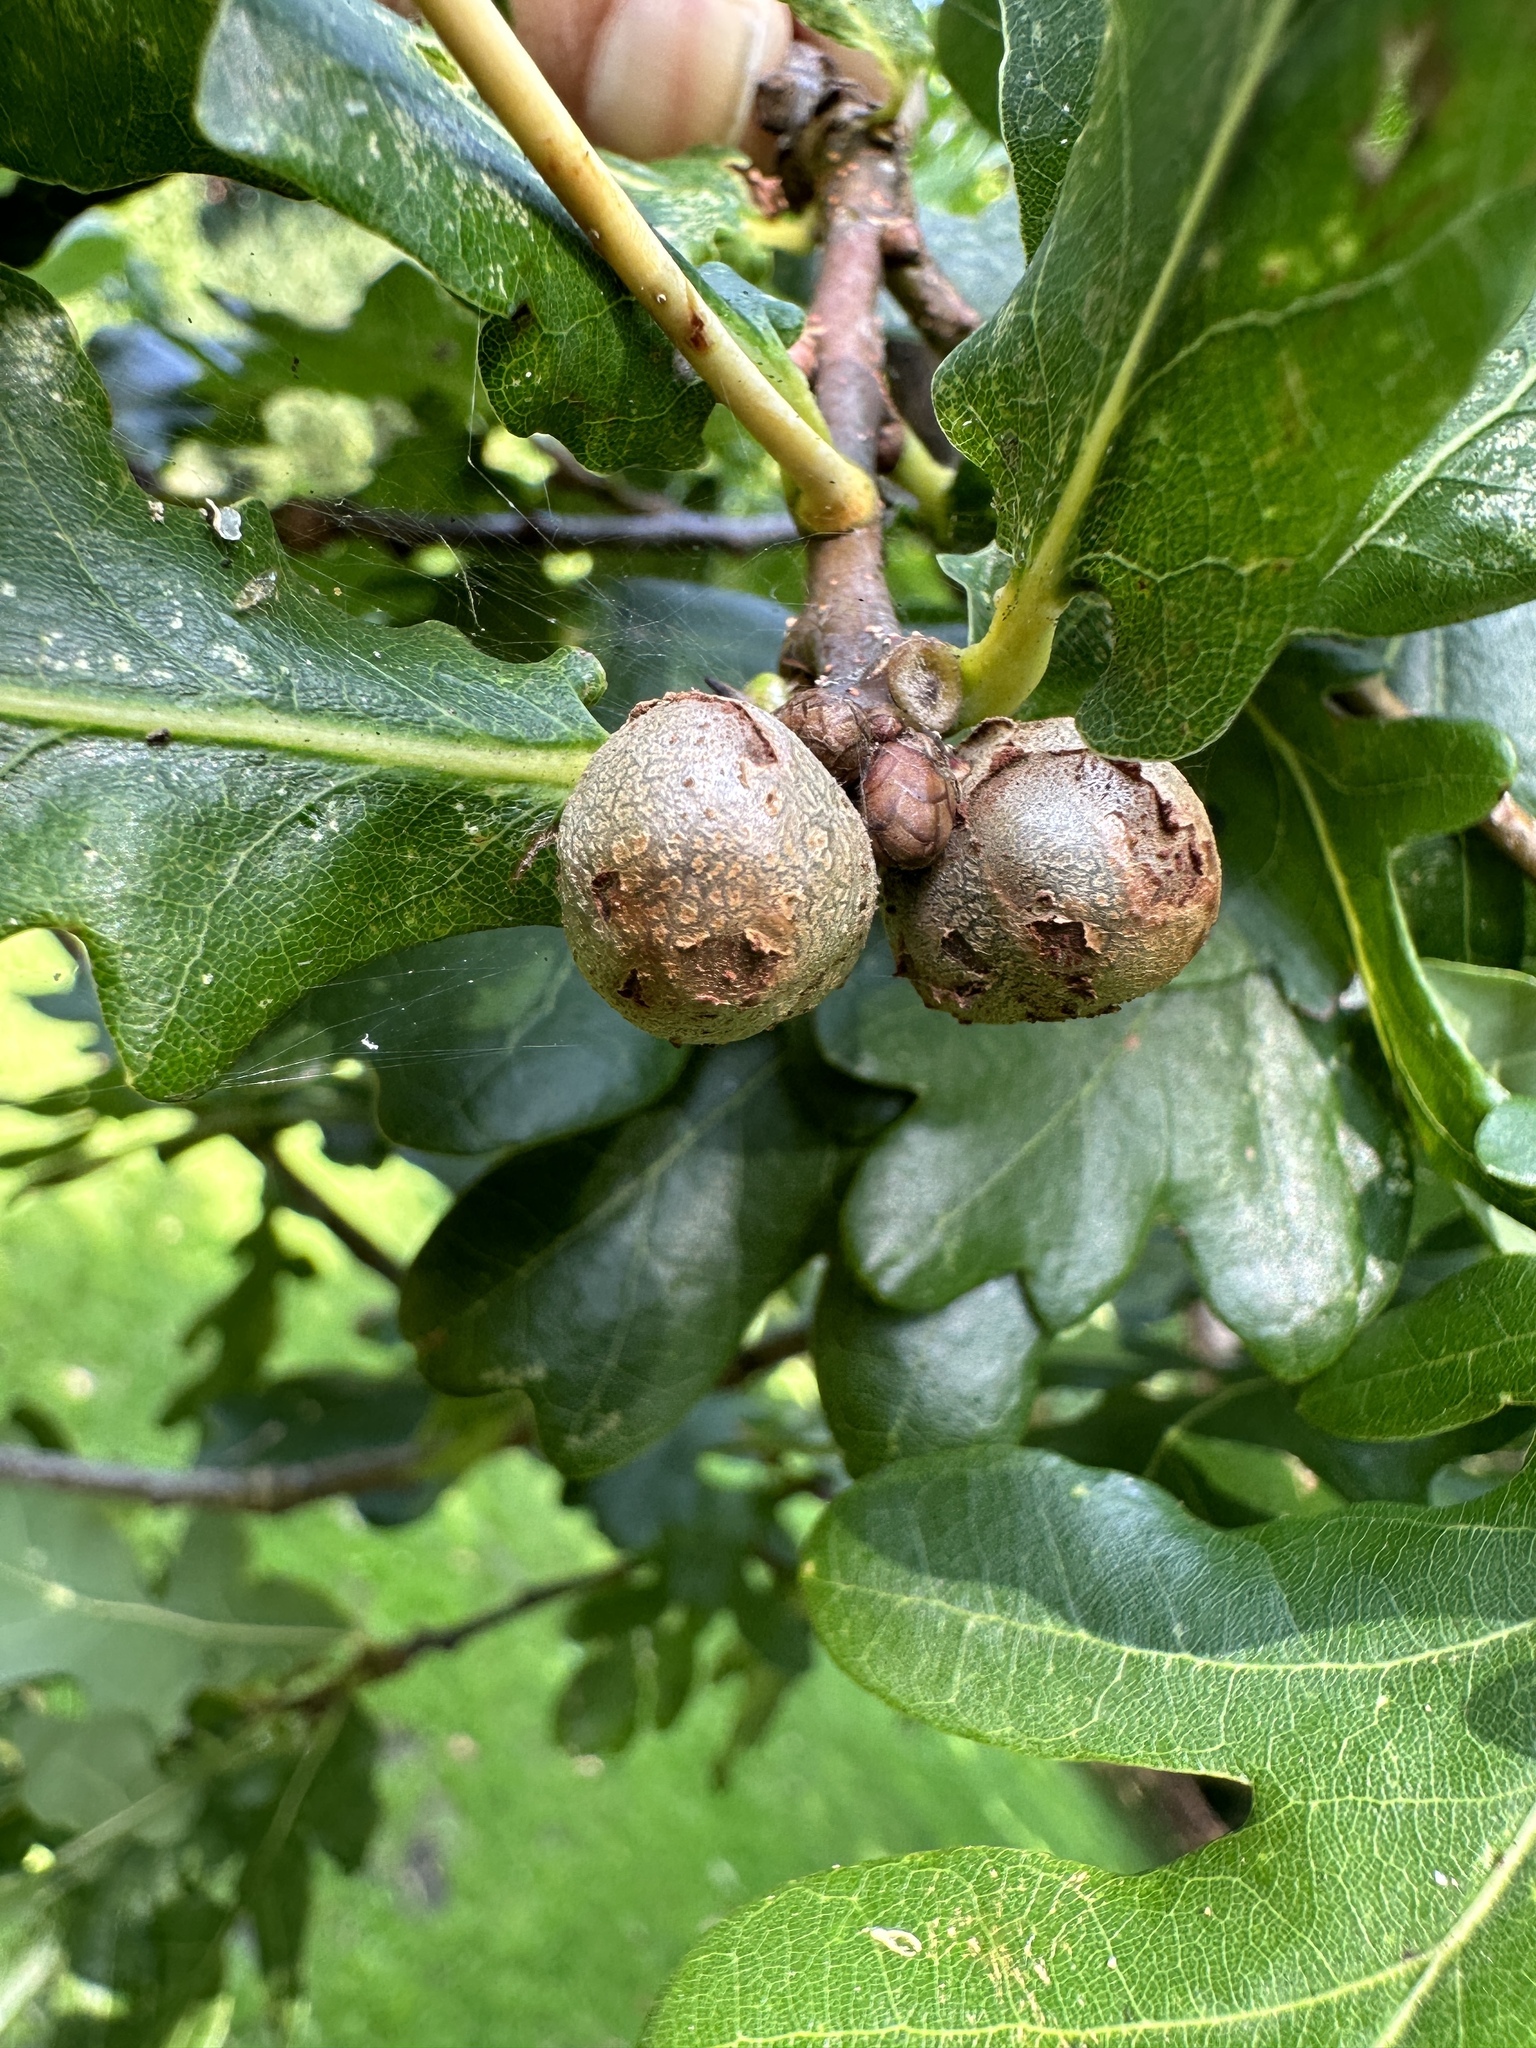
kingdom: Animalia
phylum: Arthropoda
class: Insecta
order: Hymenoptera
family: Cynipidae
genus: Andricus
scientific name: Andricus lignicolus
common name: Cola-nut gall
